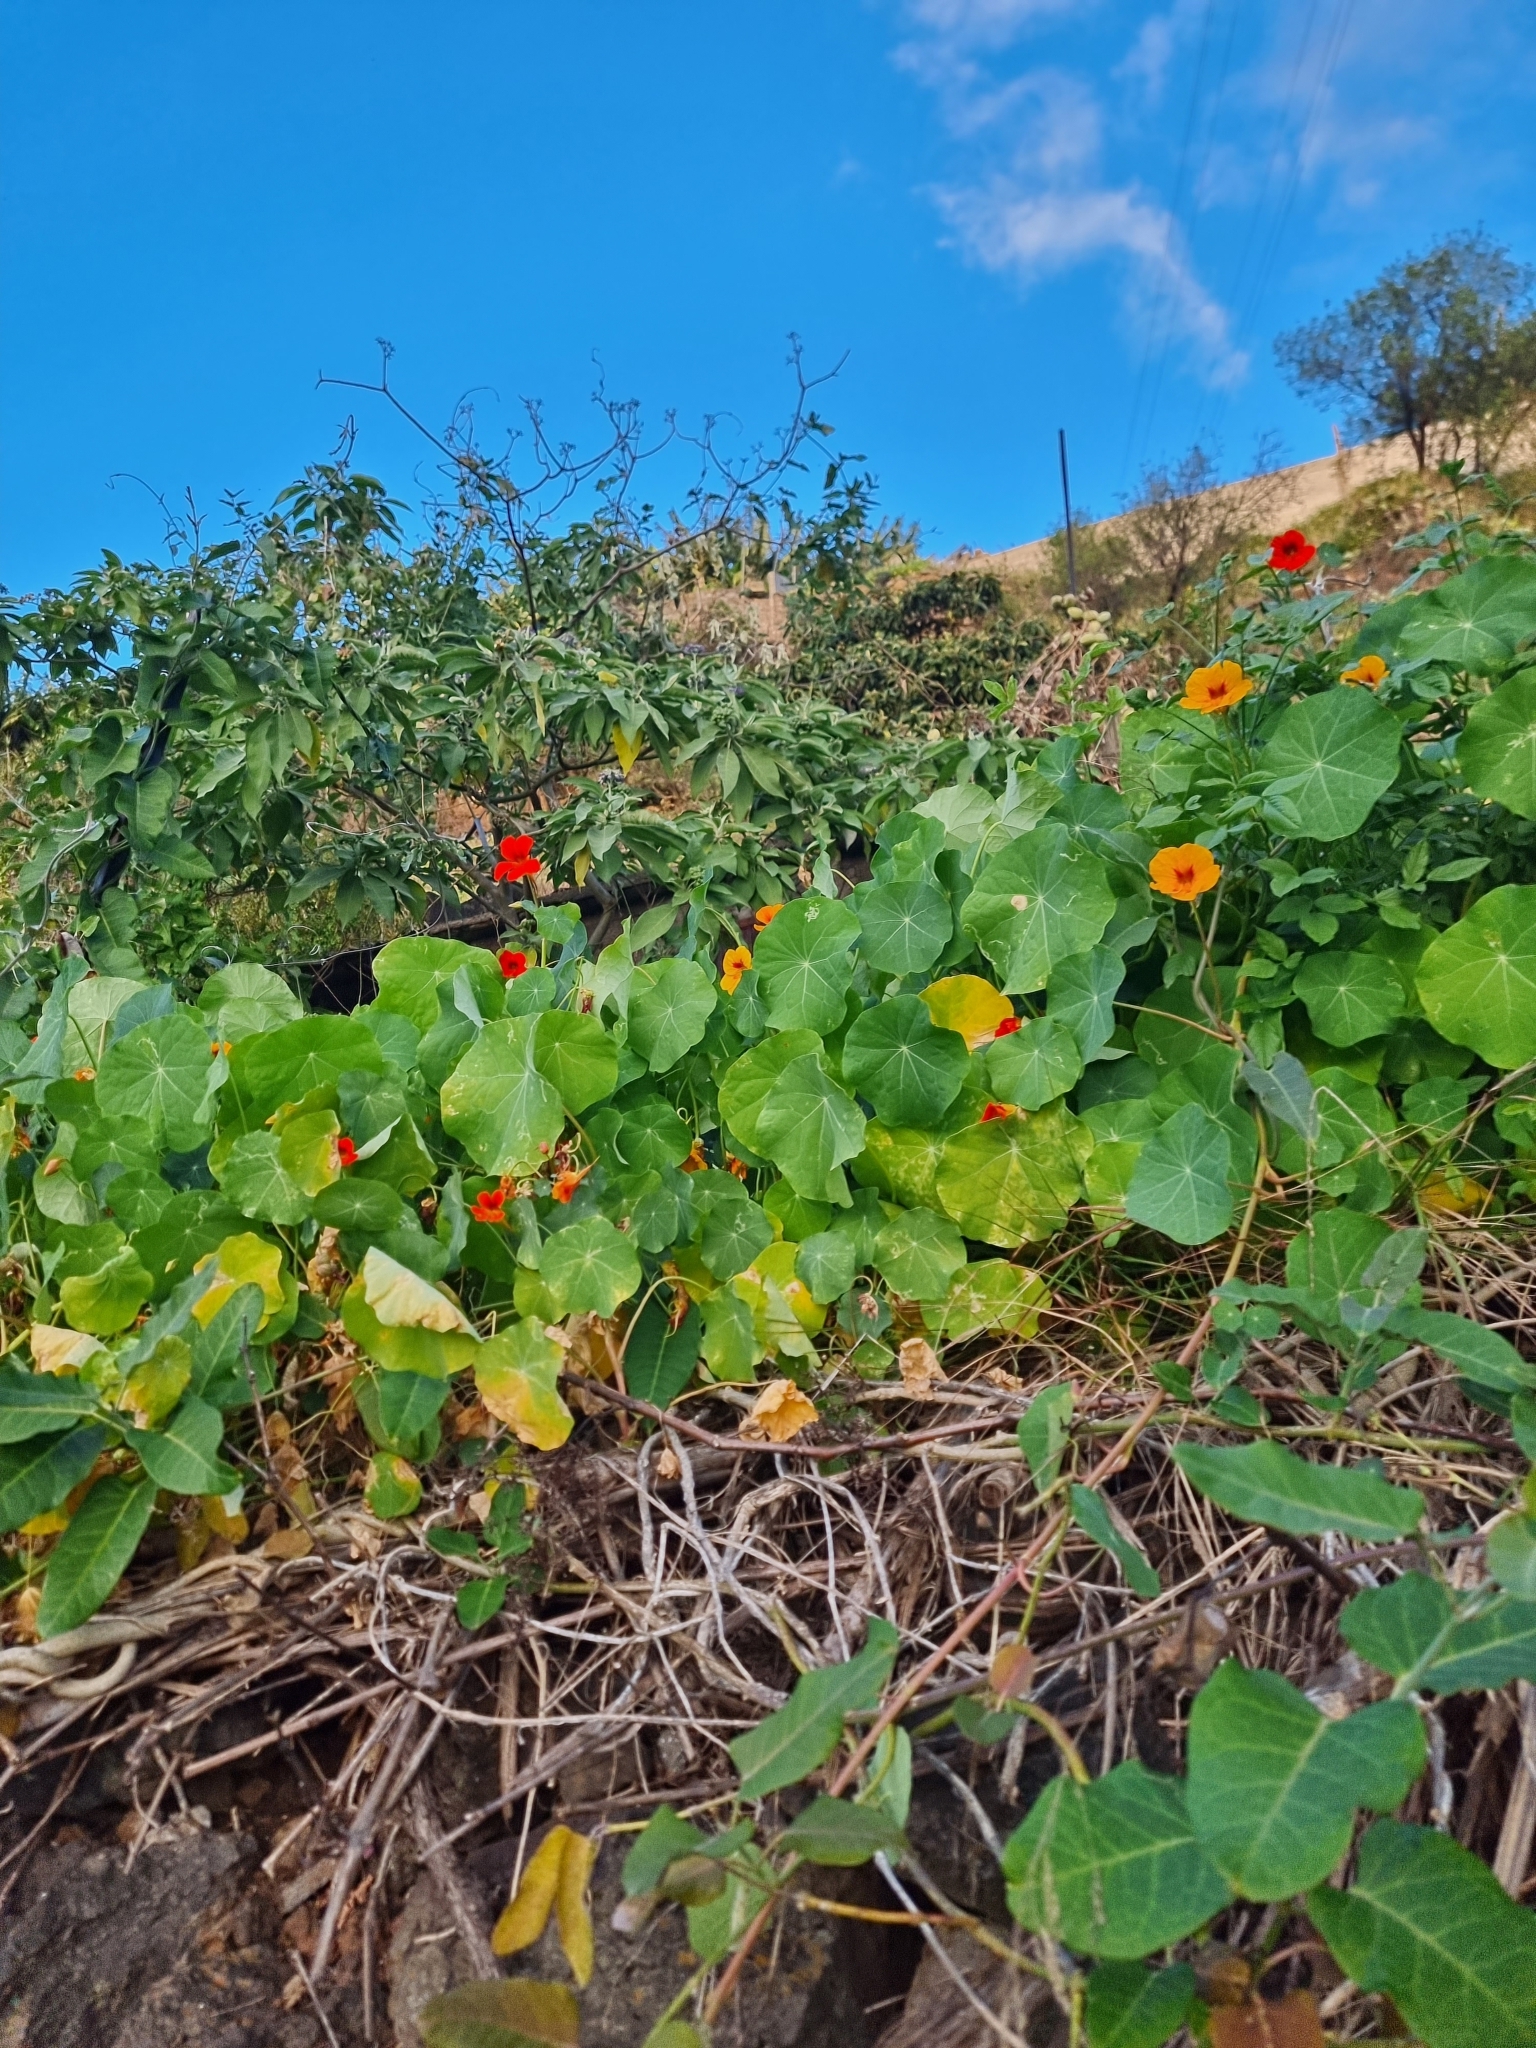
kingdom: Plantae
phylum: Tracheophyta
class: Magnoliopsida
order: Brassicales
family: Tropaeolaceae
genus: Tropaeolum
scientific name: Tropaeolum majus
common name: Nasturtium
